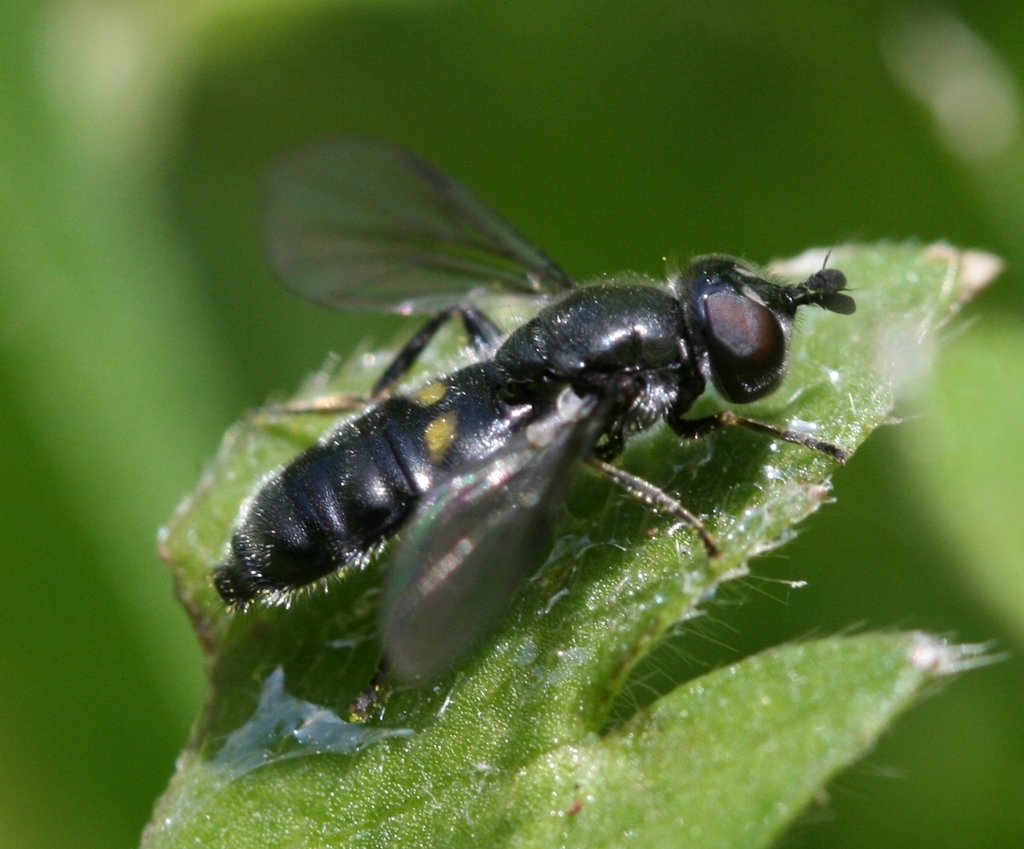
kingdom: Animalia
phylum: Arthropoda
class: Insecta
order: Diptera
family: Syrphidae
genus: Pipiza
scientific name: Pipiza
